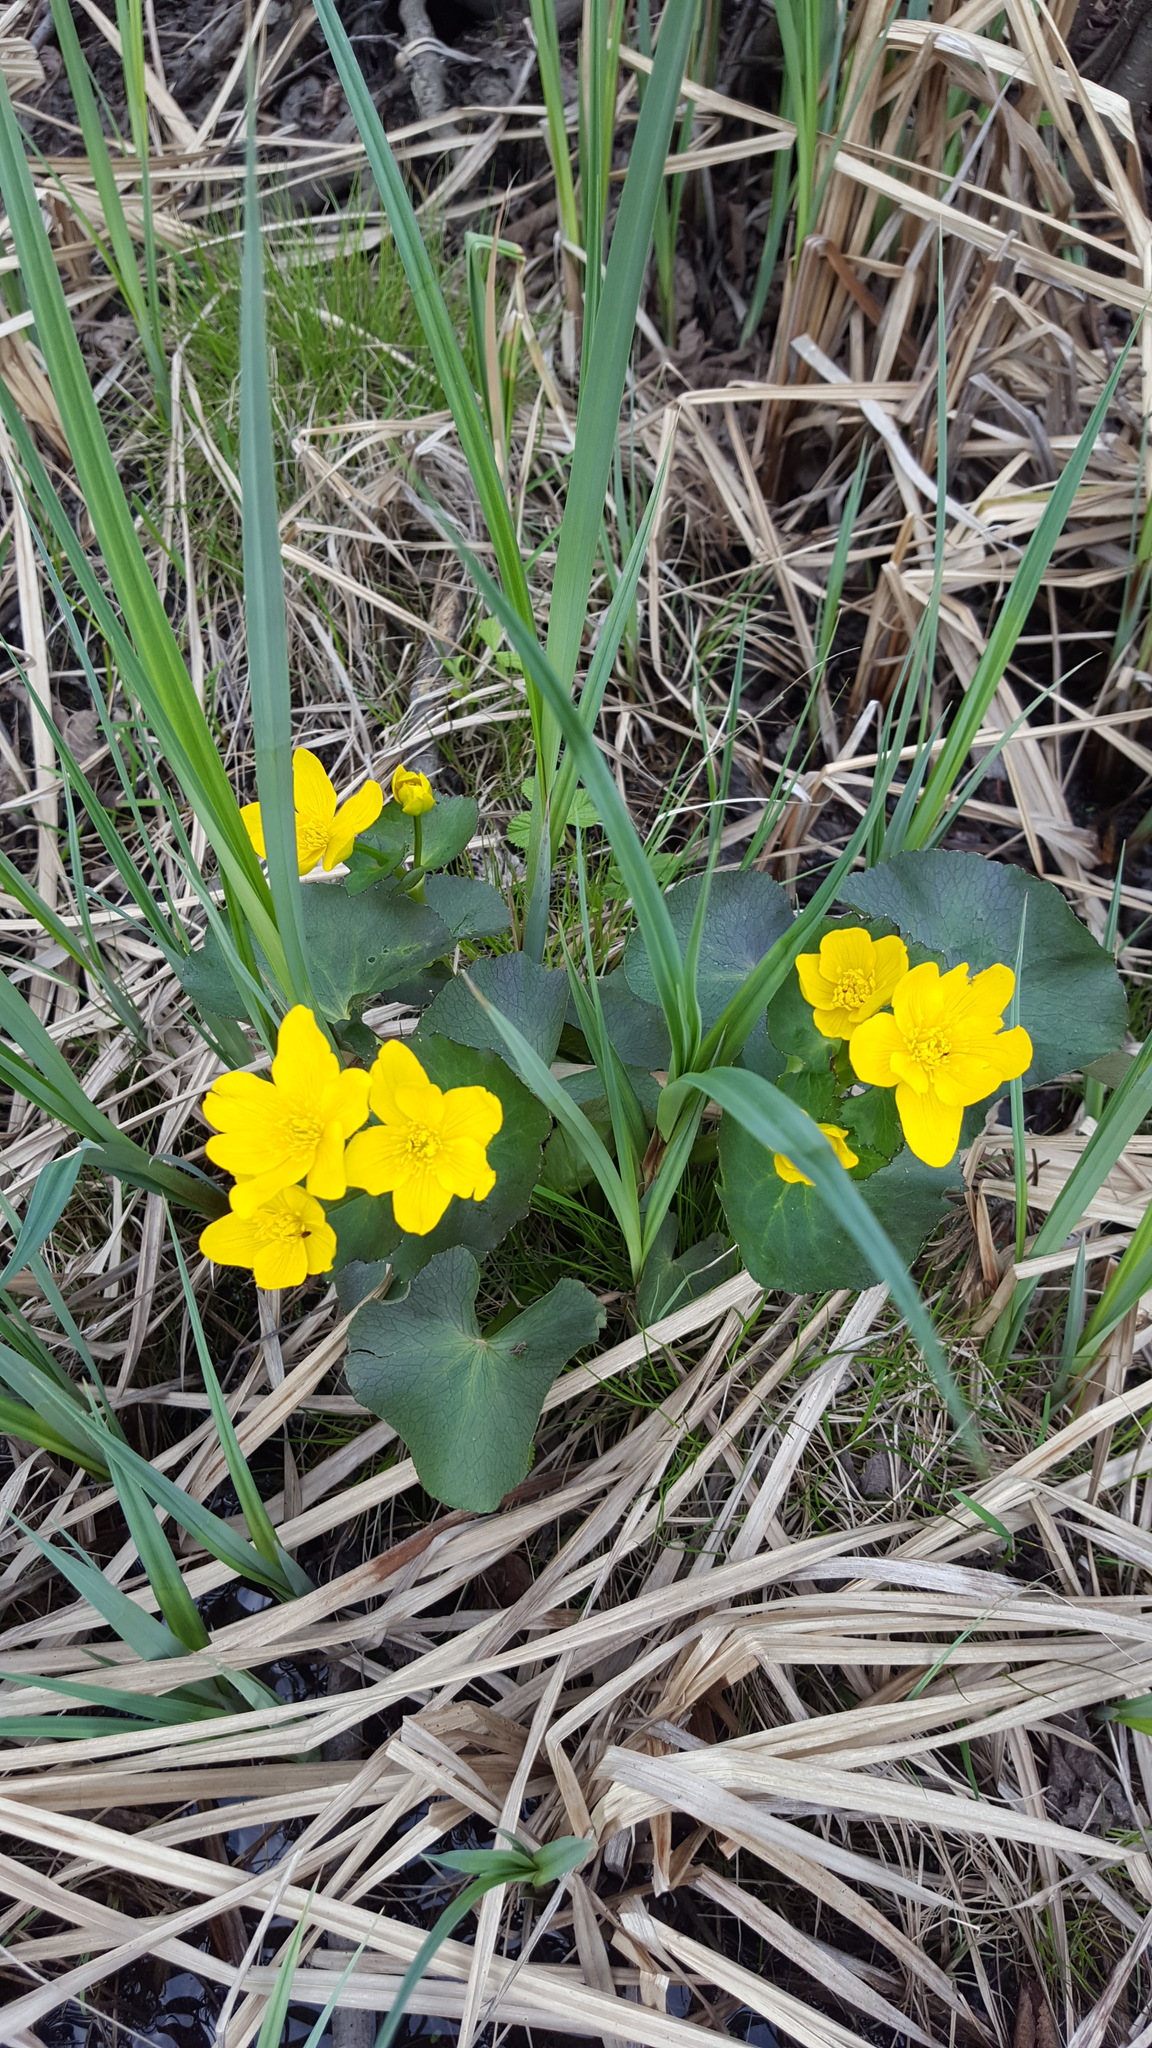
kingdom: Plantae
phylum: Tracheophyta
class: Magnoliopsida
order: Ranunculales
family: Ranunculaceae
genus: Caltha
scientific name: Caltha palustris
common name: Marsh marigold
